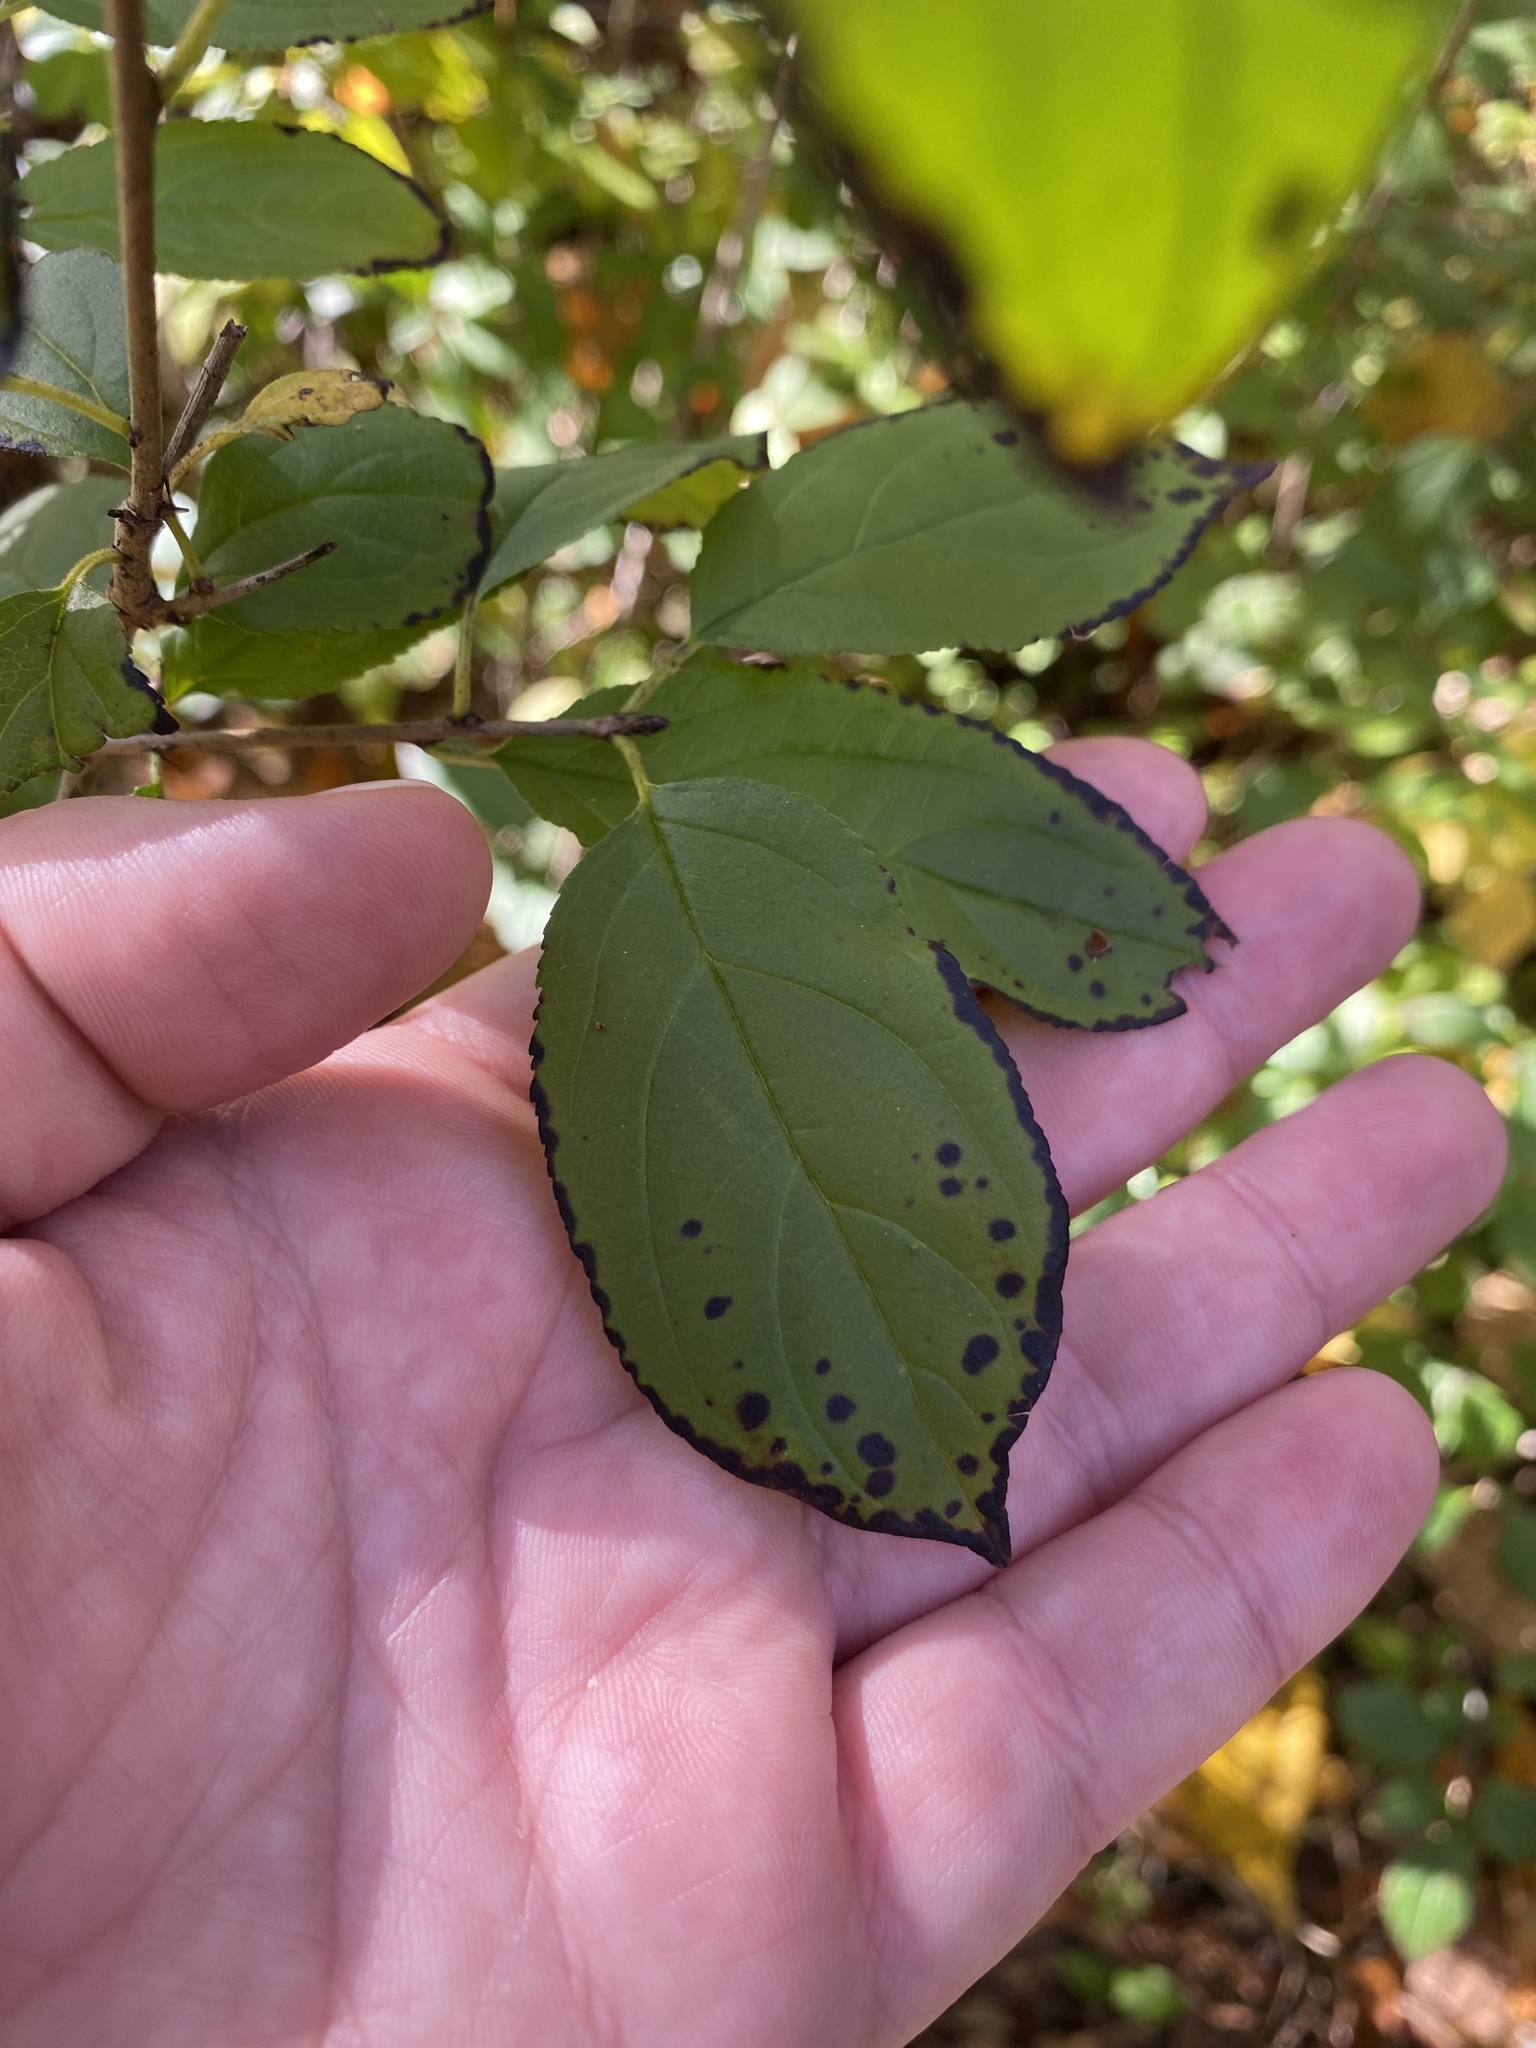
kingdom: Plantae
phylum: Tracheophyta
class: Magnoliopsida
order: Rosales
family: Rhamnaceae
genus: Rhamnus
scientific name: Rhamnus cathartica
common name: Common buckthorn
